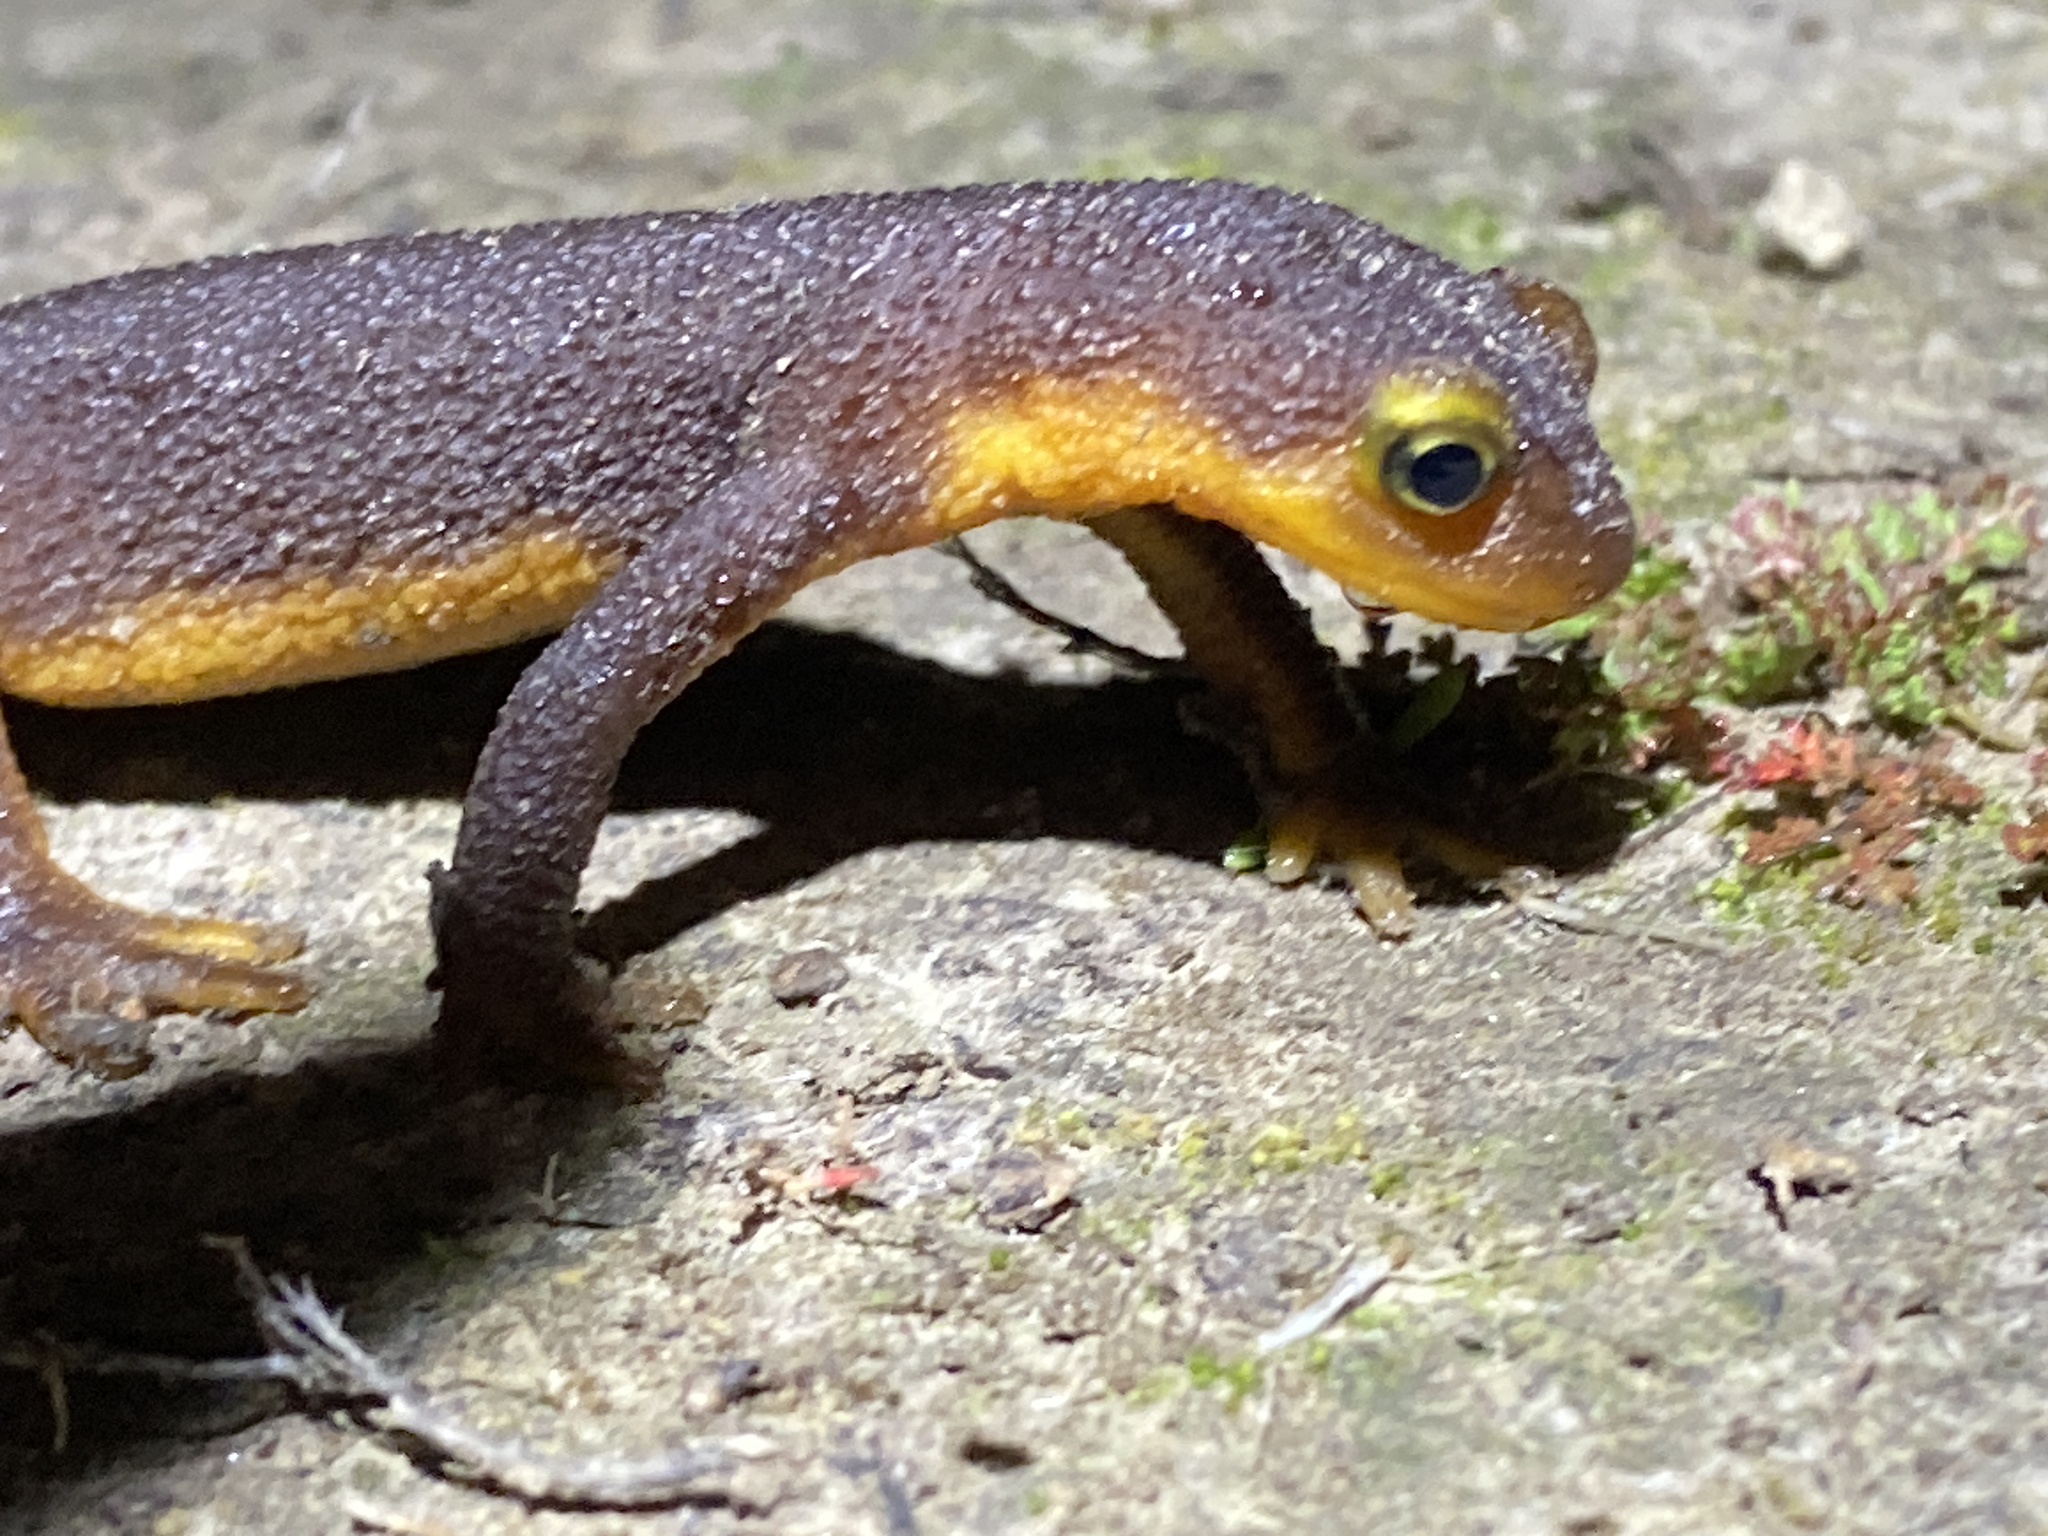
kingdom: Animalia
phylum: Chordata
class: Amphibia
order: Caudata
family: Salamandridae
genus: Taricha
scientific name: Taricha torosa
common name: California newt
